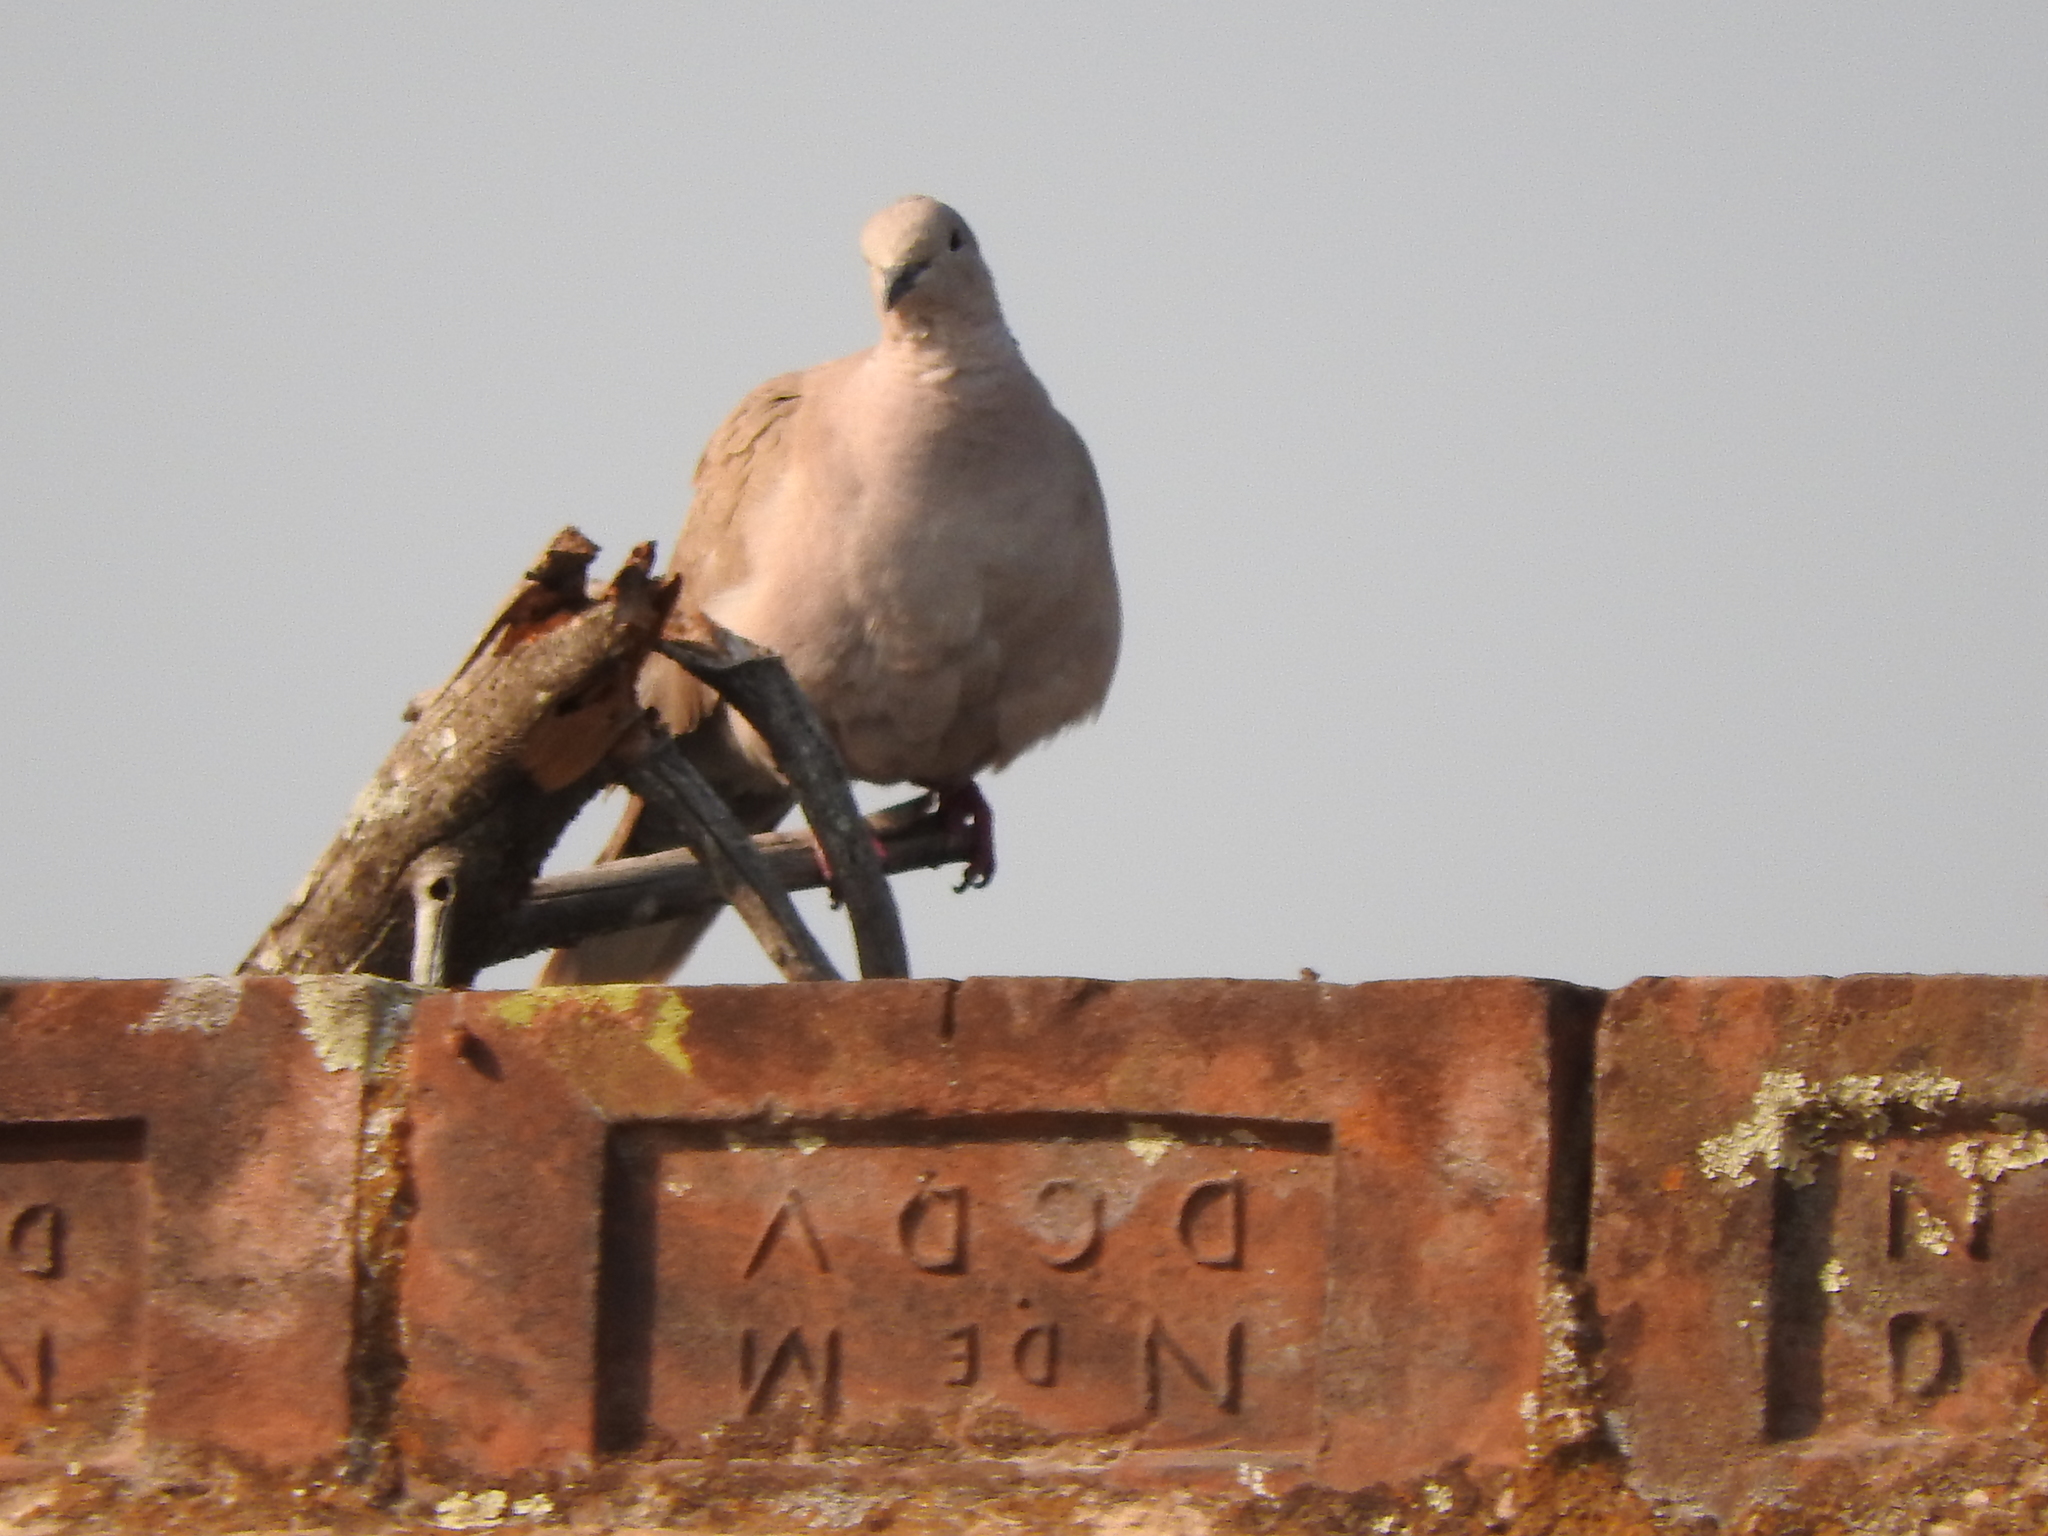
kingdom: Animalia
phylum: Chordata
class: Aves
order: Columbiformes
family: Columbidae
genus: Streptopelia
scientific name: Streptopelia decaocto
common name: Eurasian collared dove
